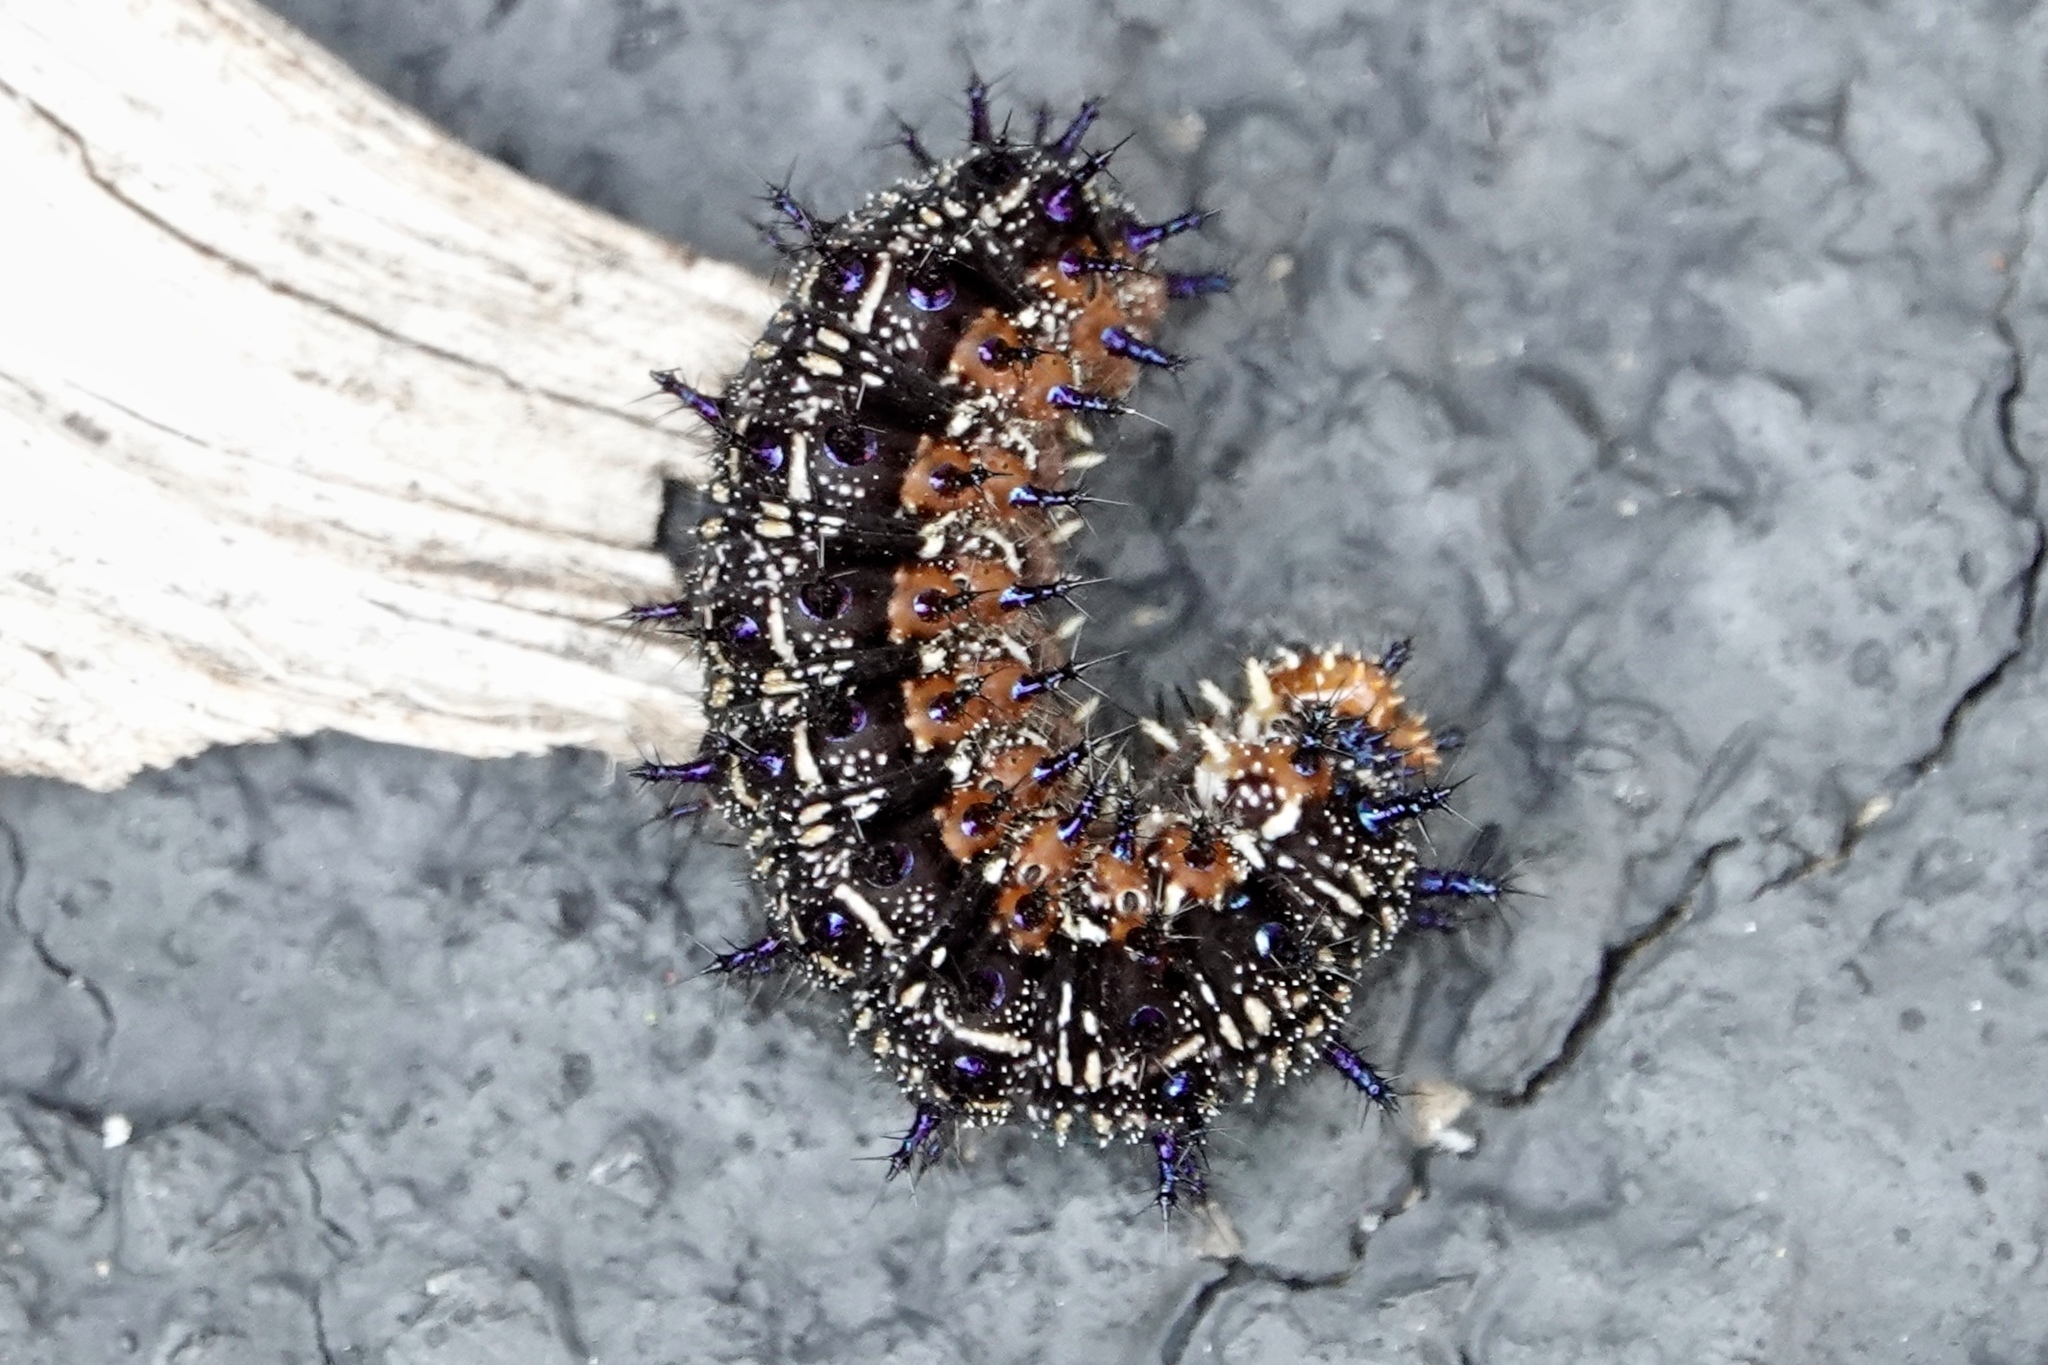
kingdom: Animalia
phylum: Arthropoda
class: Insecta
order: Lepidoptera
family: Nymphalidae
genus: Junonia
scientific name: Junonia coenia
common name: Common buckeye
